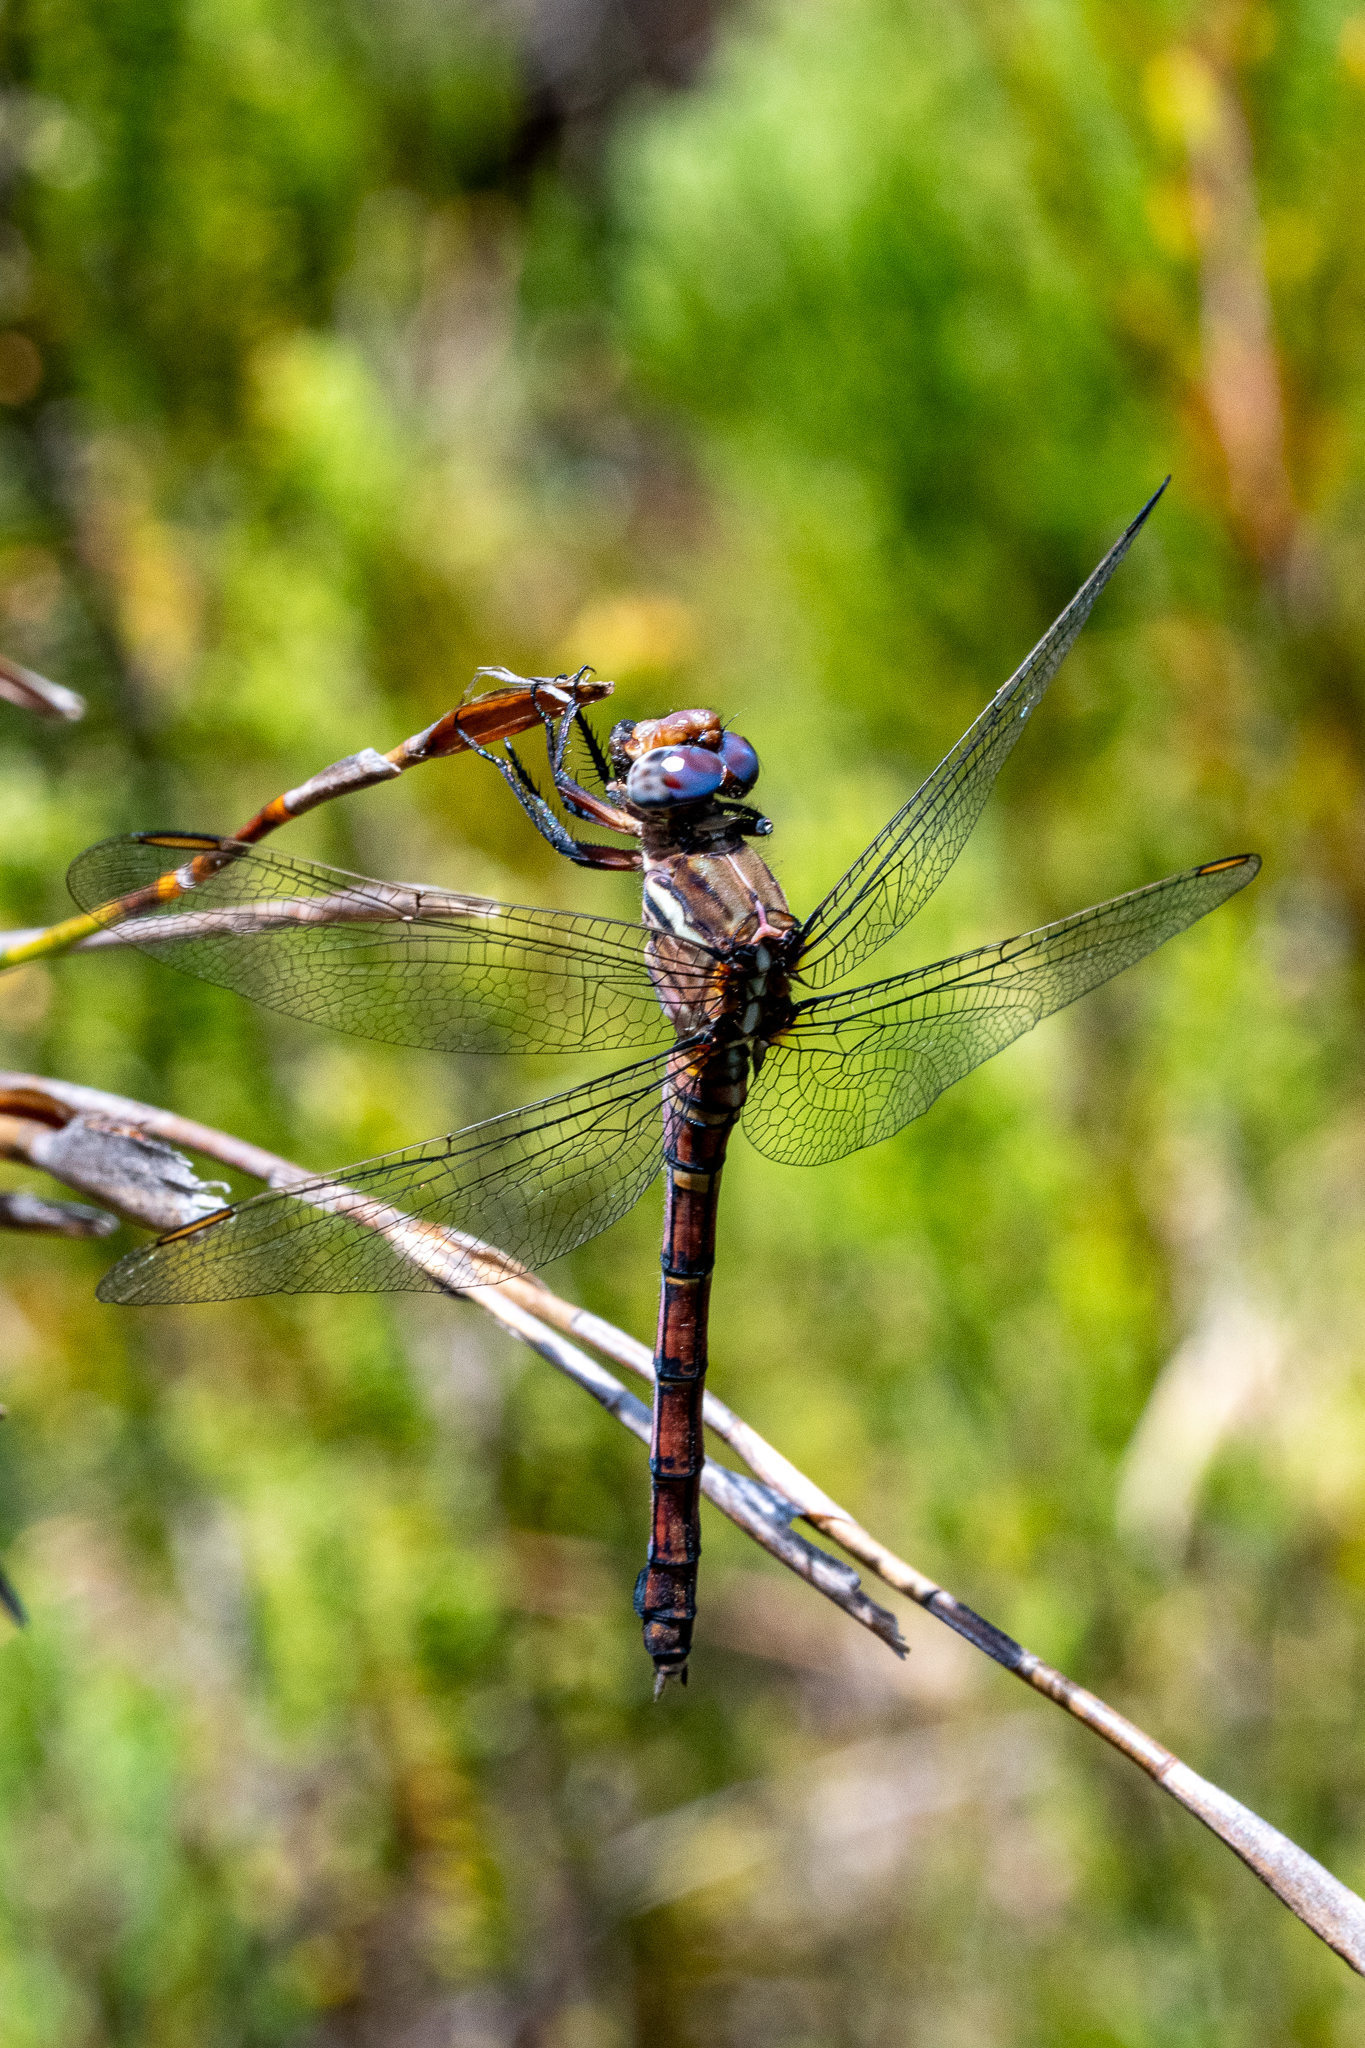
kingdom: Animalia
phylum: Arthropoda
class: Insecta
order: Odonata
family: Libellulidae
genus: Orthetrum
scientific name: Orthetrum julia
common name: Julia skimmer
